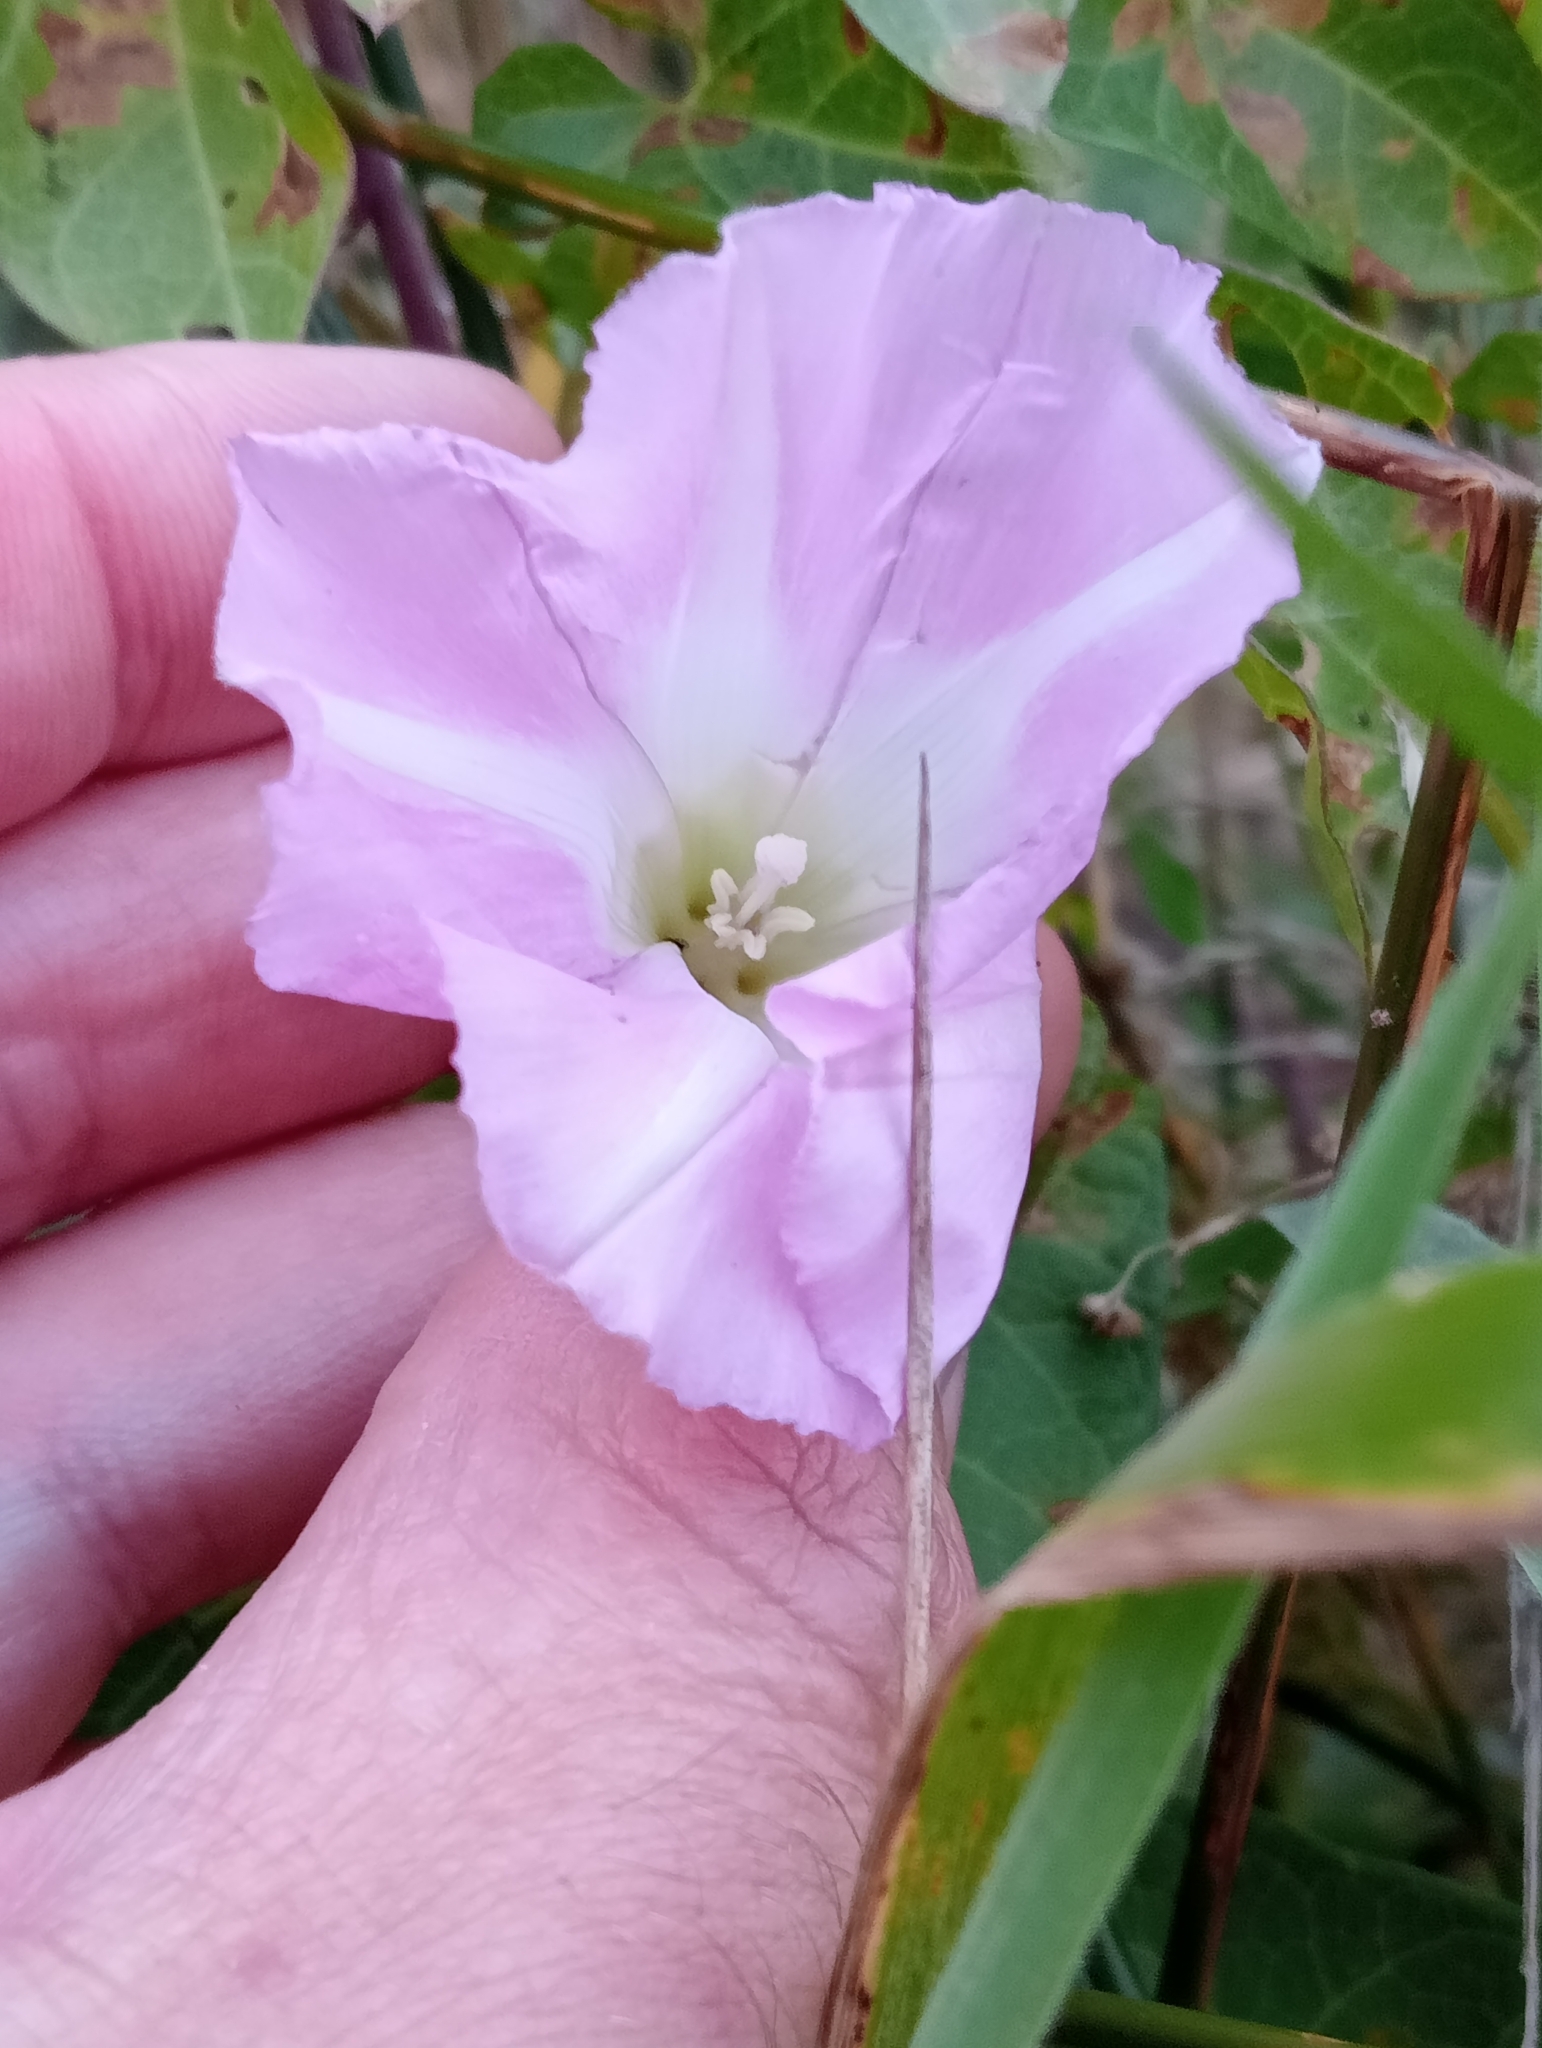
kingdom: Plantae
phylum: Tracheophyta
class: Magnoliopsida
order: Solanales
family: Convolvulaceae
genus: Calystegia
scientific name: Calystegia
